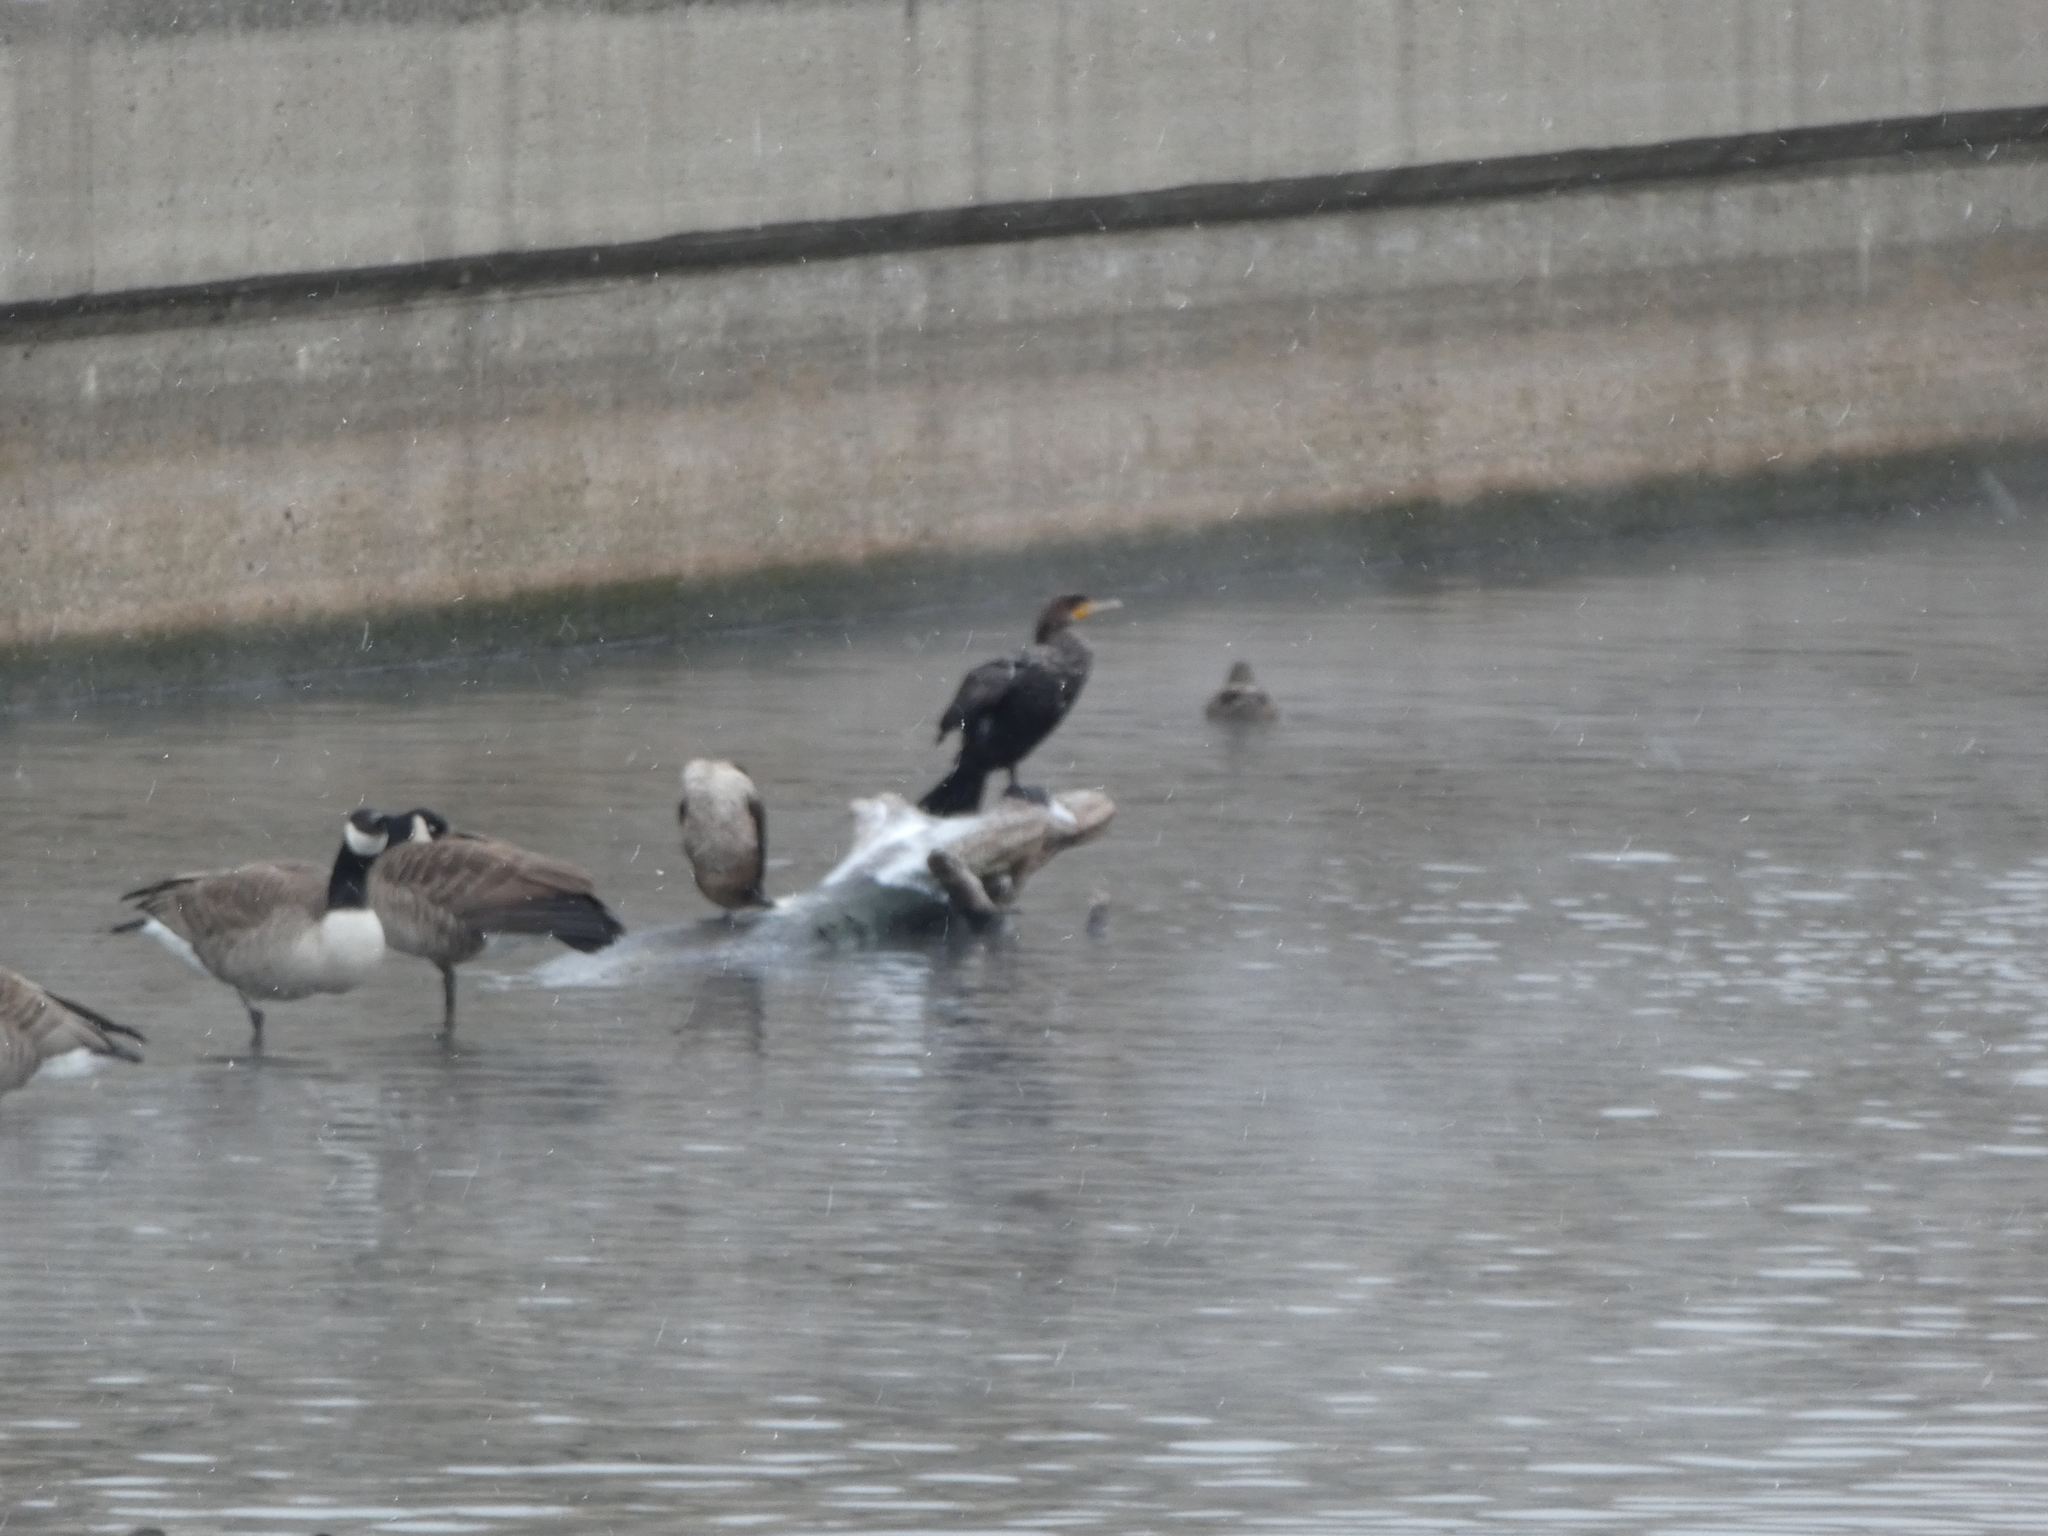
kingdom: Animalia
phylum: Chordata
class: Aves
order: Suliformes
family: Phalacrocoracidae
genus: Phalacrocorax
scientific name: Phalacrocorax auritus
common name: Double-crested cormorant
